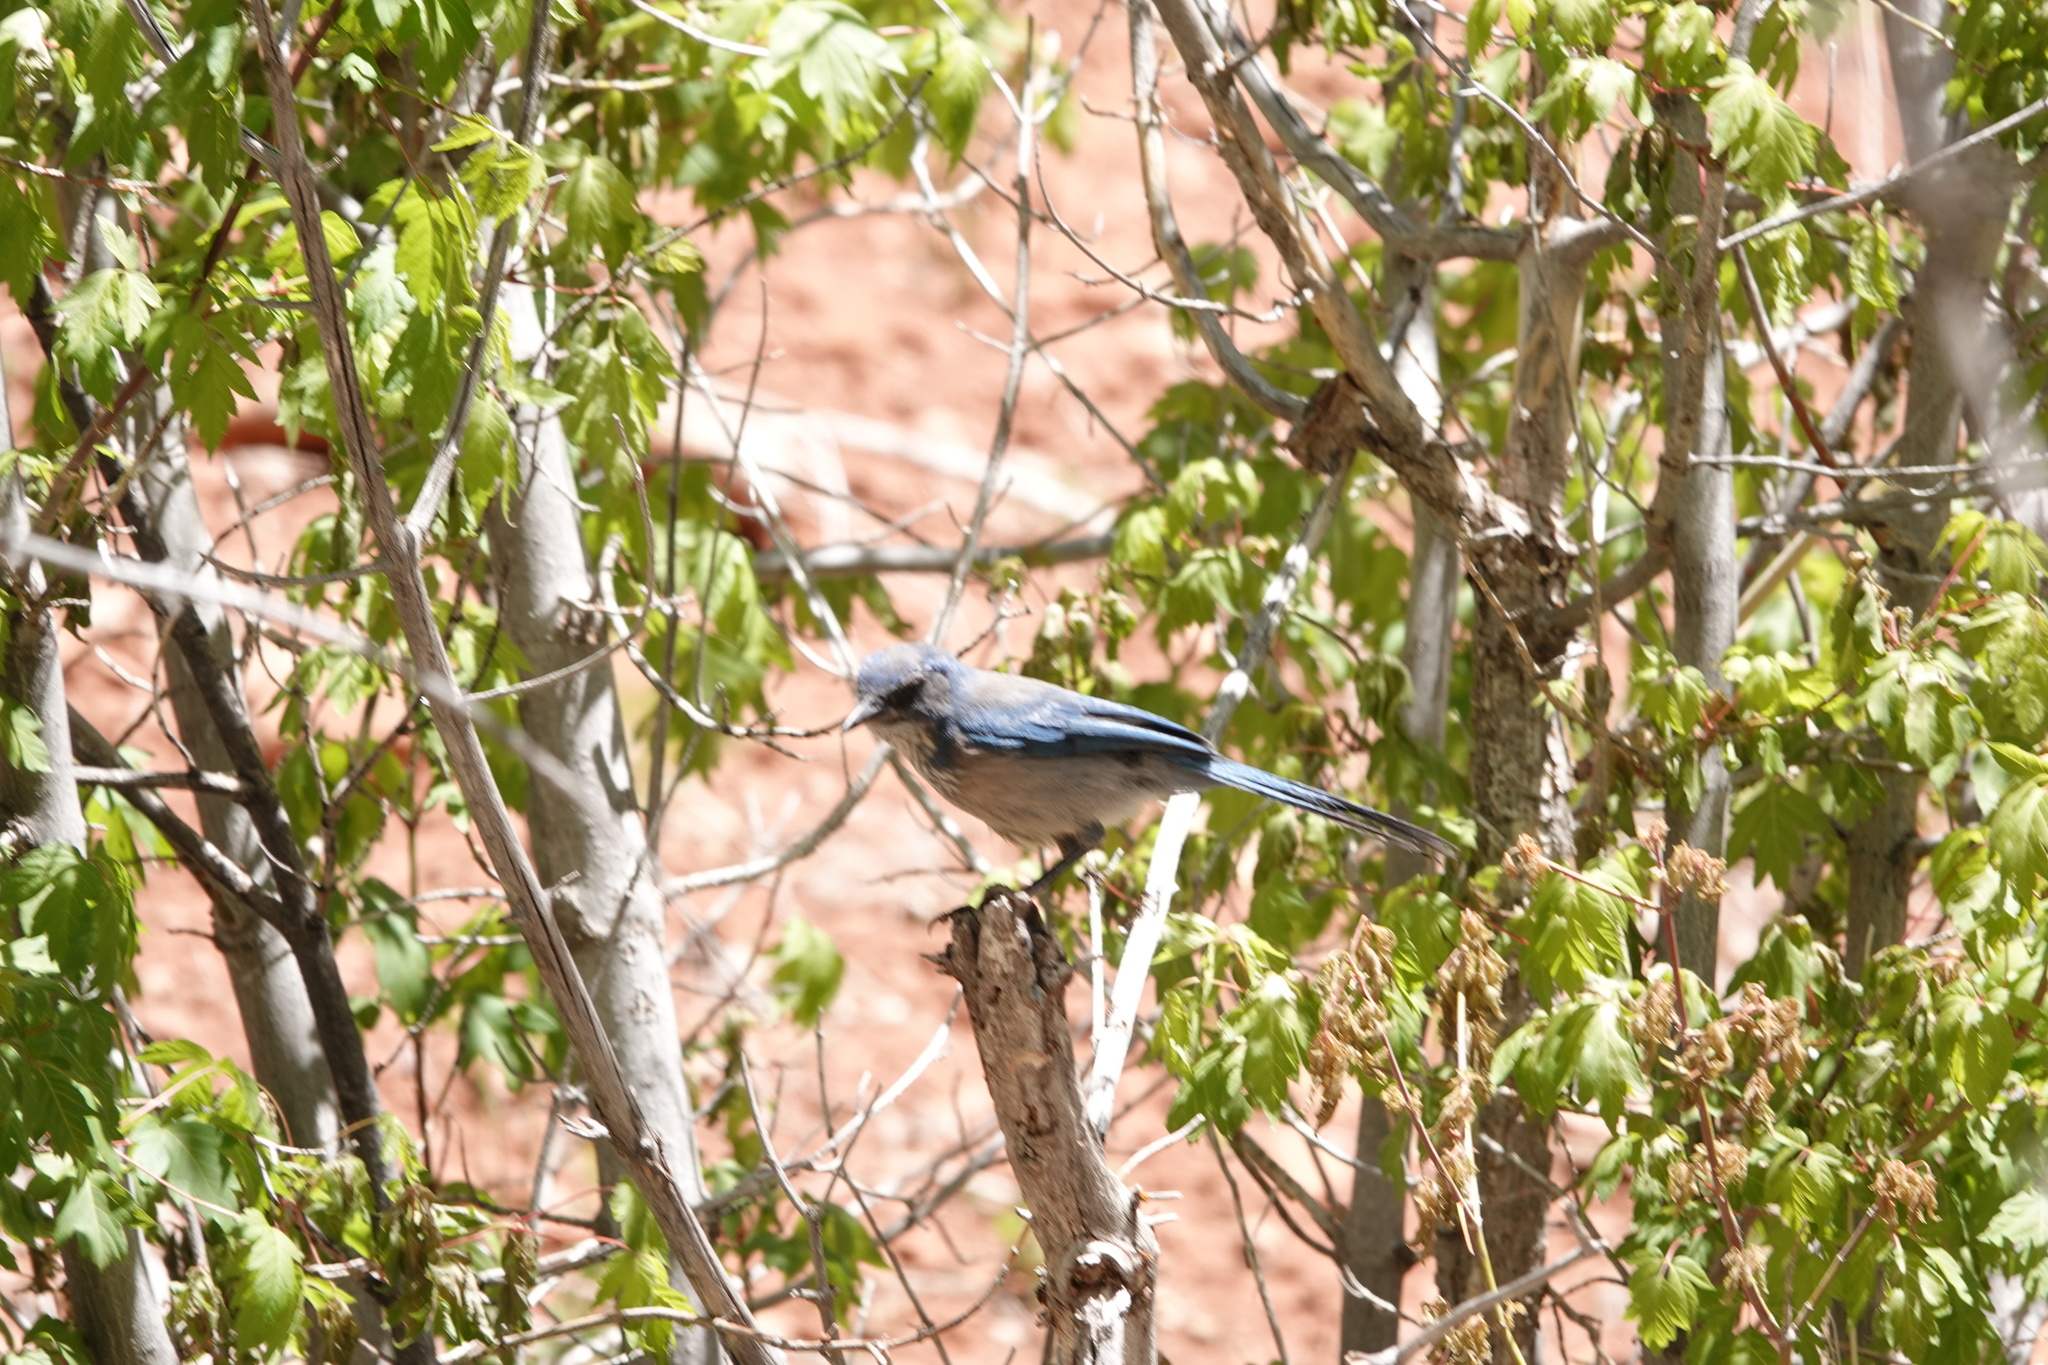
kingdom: Animalia
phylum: Chordata
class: Aves
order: Passeriformes
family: Corvidae
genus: Aphelocoma
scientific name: Aphelocoma woodhouseii
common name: Woodhouse's scrub-jay
